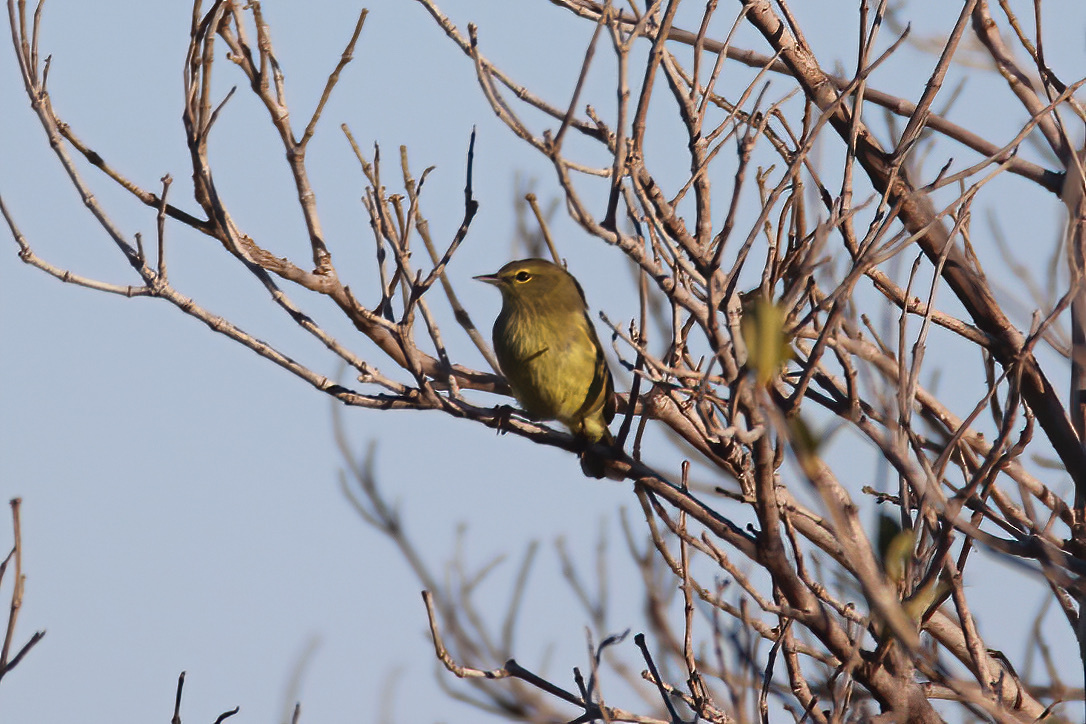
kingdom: Animalia
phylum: Chordata
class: Aves
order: Passeriformes
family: Parulidae
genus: Leiothlypis
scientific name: Leiothlypis celata
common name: Orange-crowned warbler
